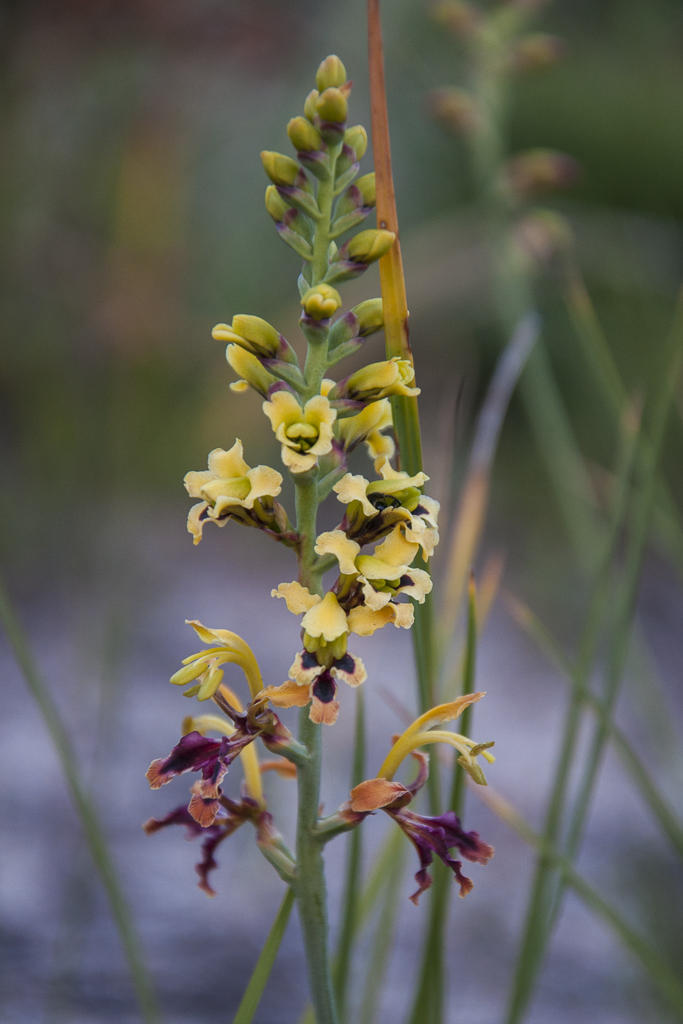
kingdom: Plantae
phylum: Tracheophyta
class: Liliopsida
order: Asparagales
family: Iridaceae
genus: Tritoniopsis
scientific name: Tritoniopsis parviflora
